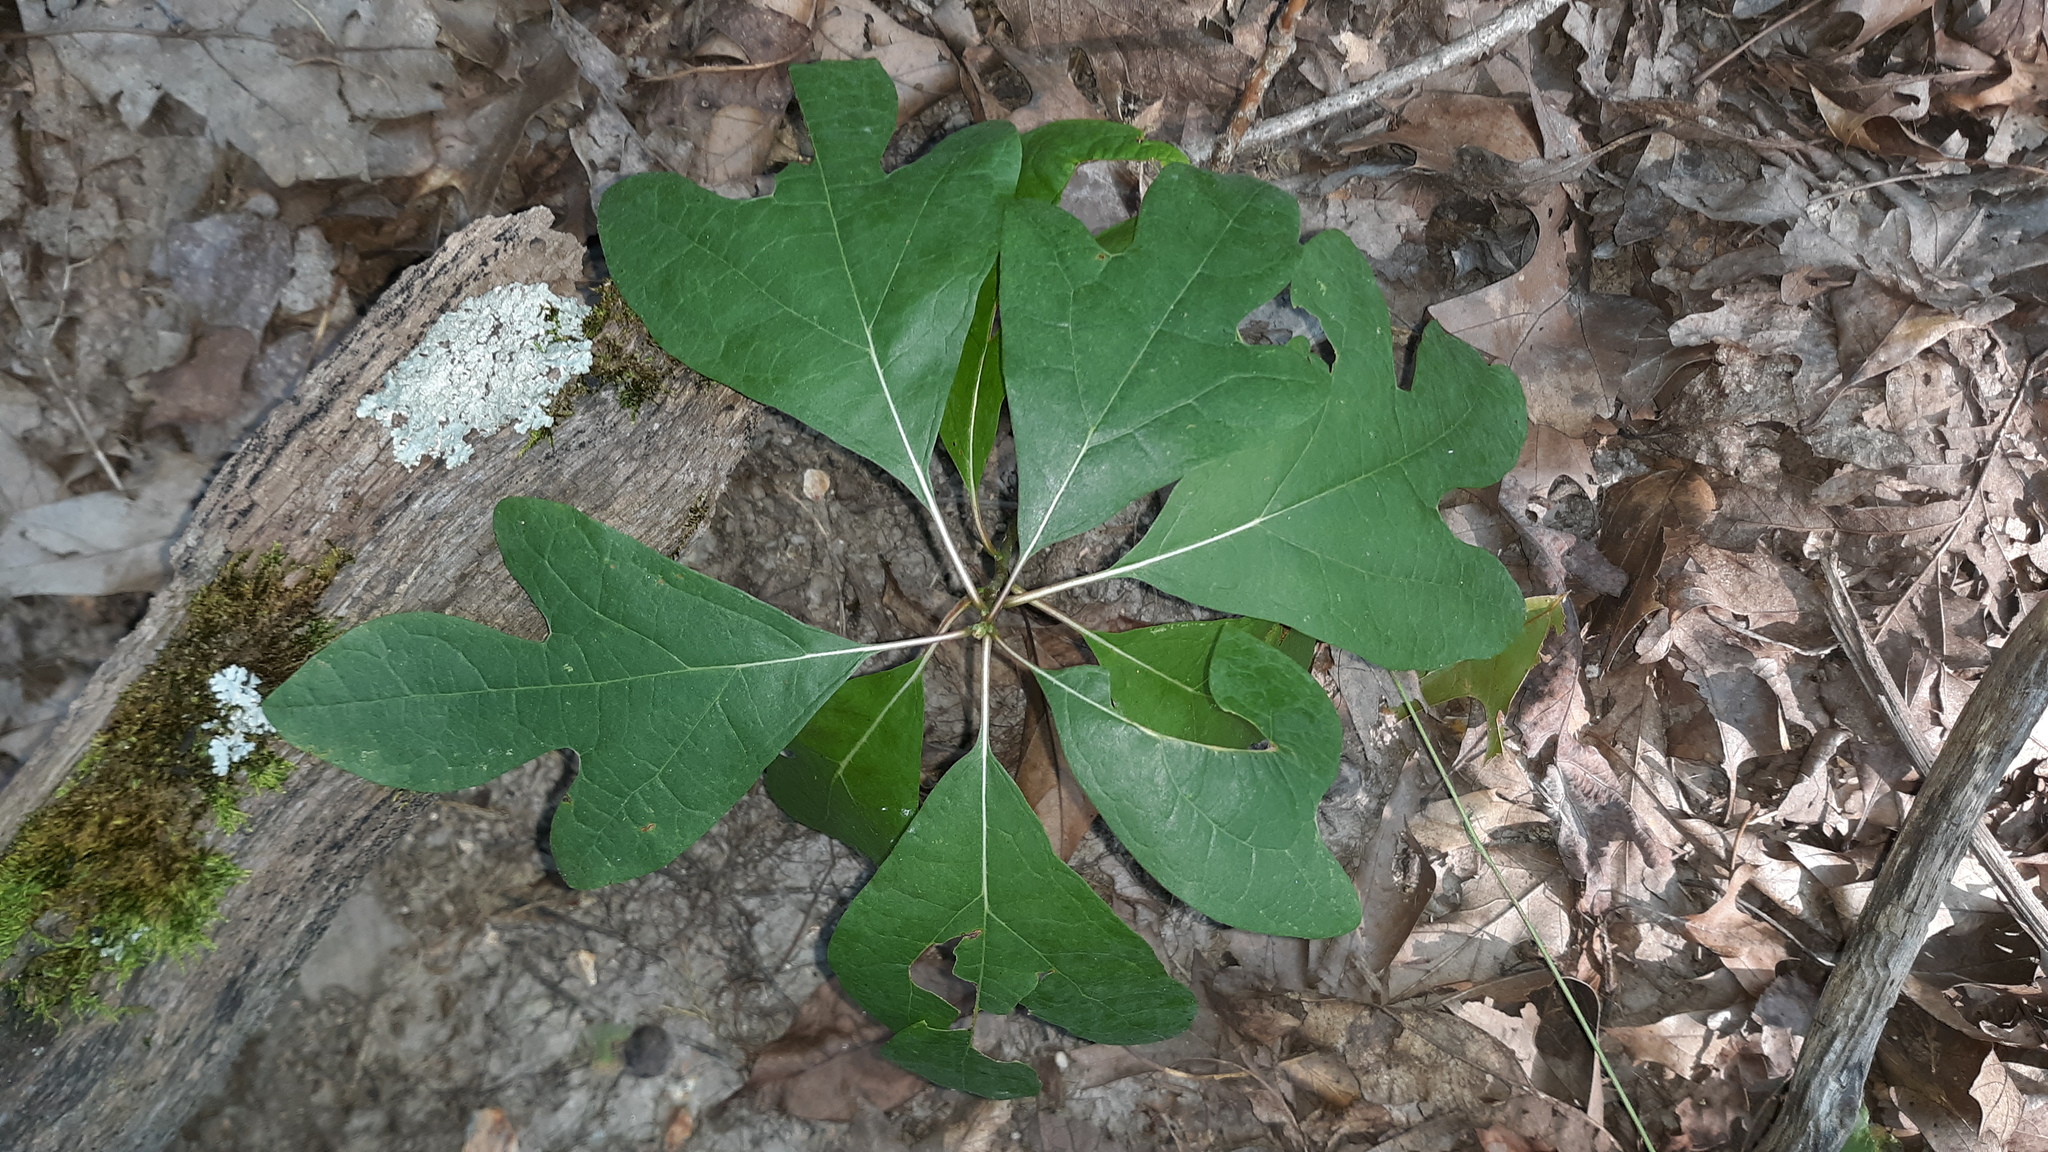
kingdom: Plantae
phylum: Tracheophyta
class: Magnoliopsida
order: Laurales
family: Lauraceae
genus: Sassafras
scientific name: Sassafras albidum
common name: Sassafras
